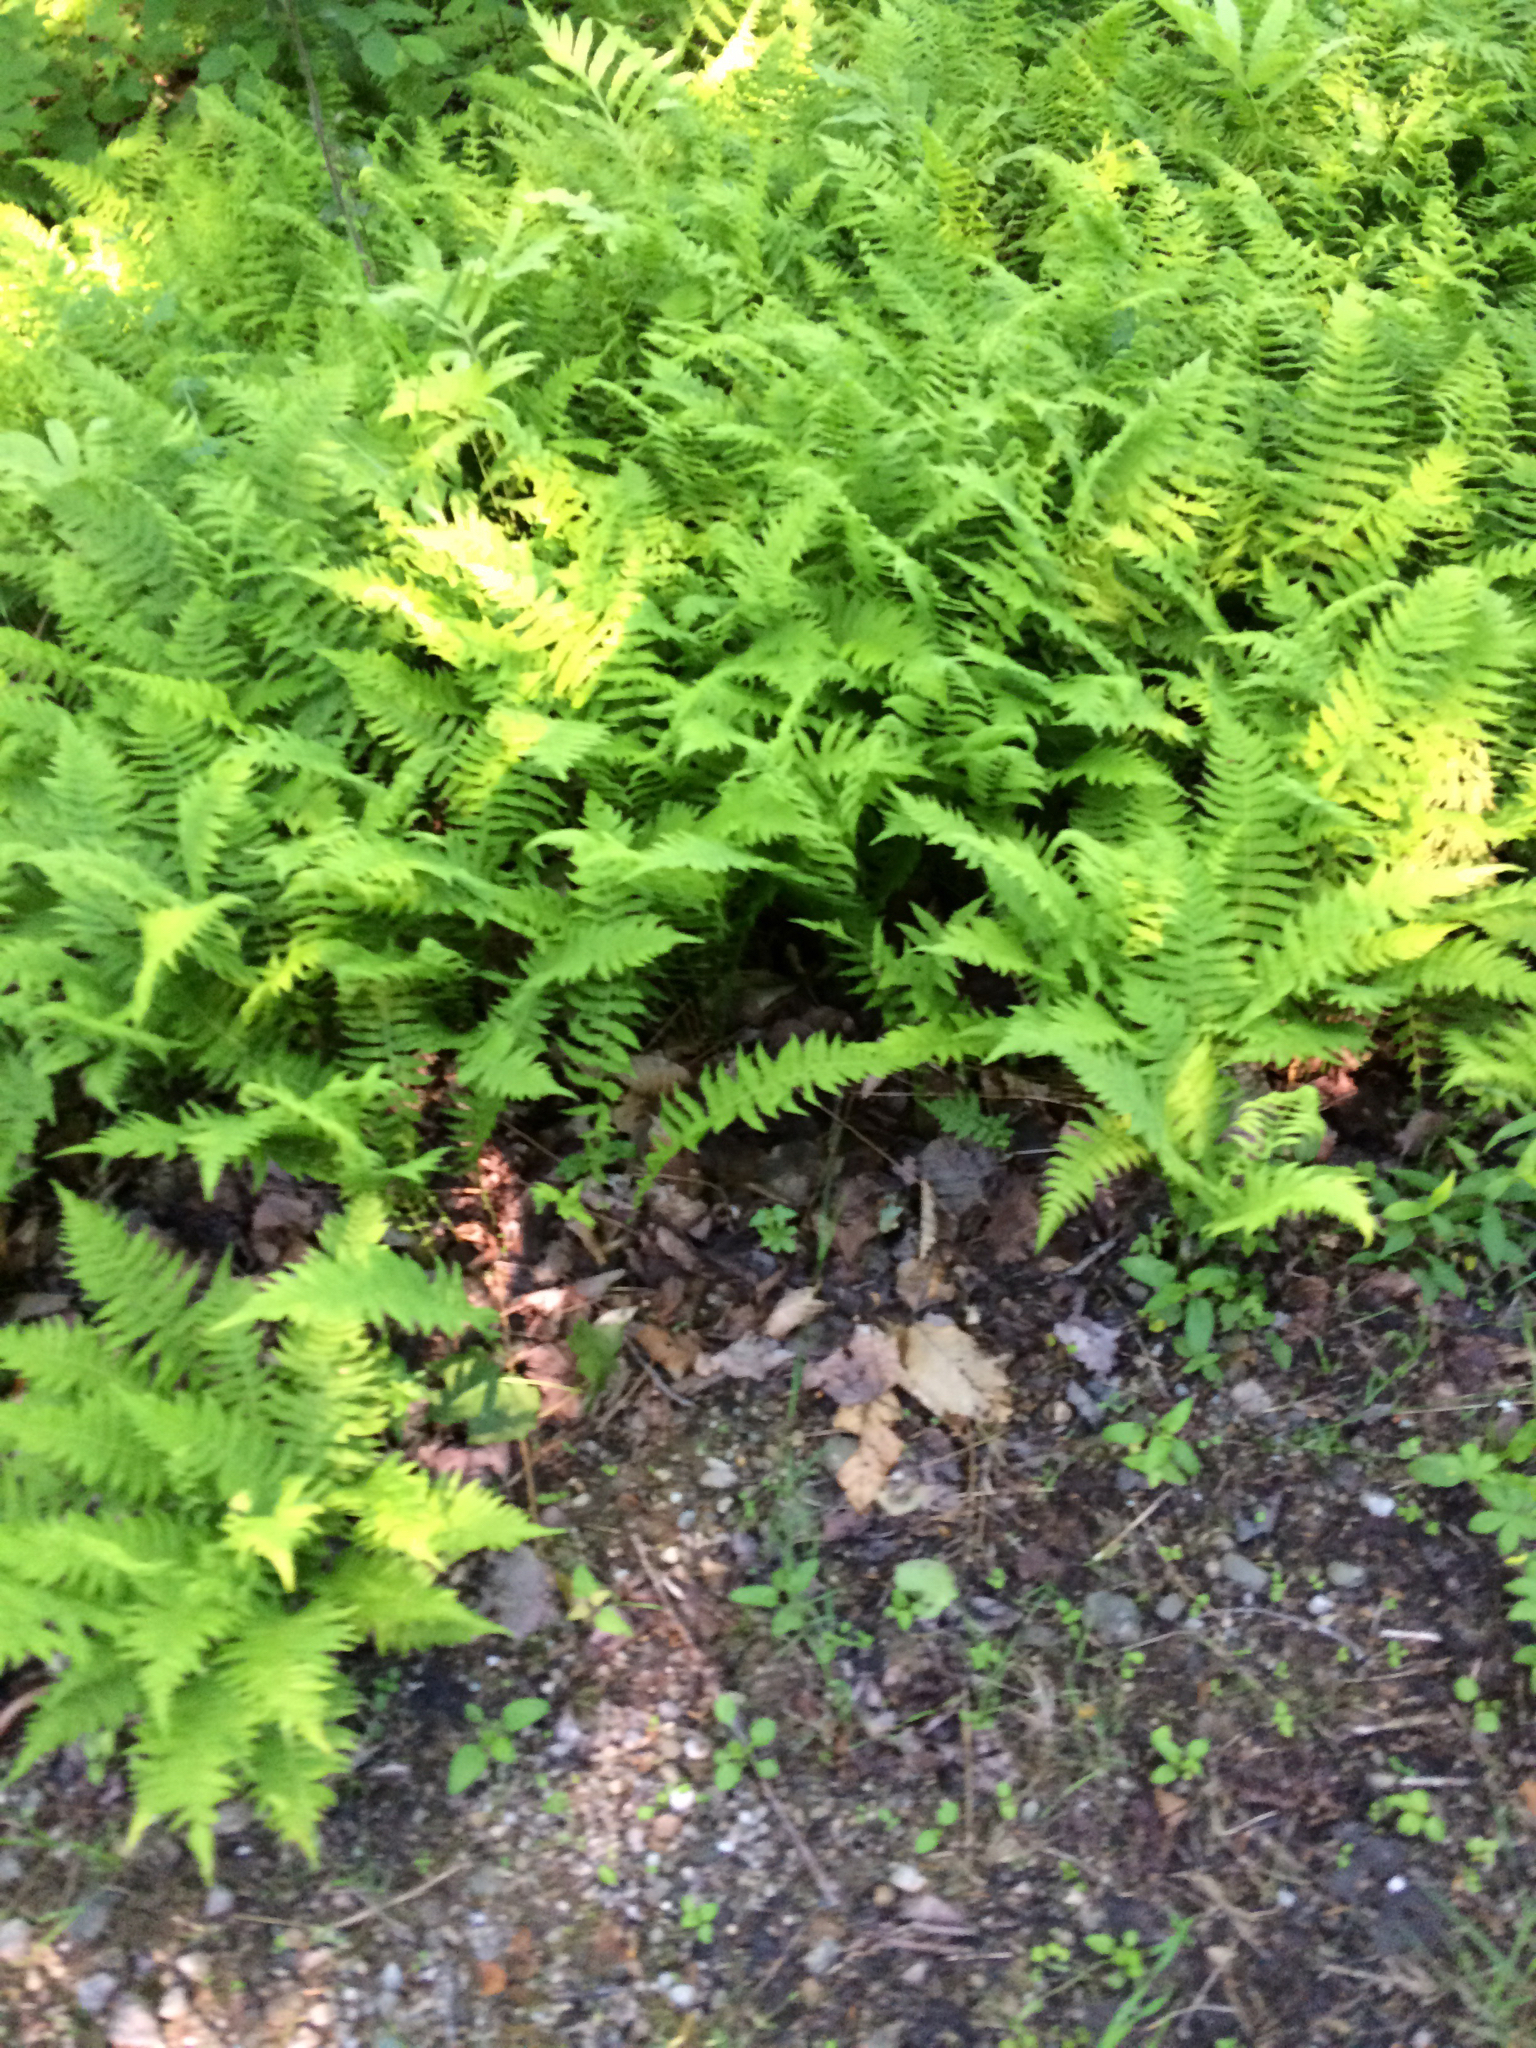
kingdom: Plantae
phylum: Tracheophyta
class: Polypodiopsida
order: Polypodiales
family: Thelypteridaceae
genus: Amauropelta
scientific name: Amauropelta noveboracensis
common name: New york fern
